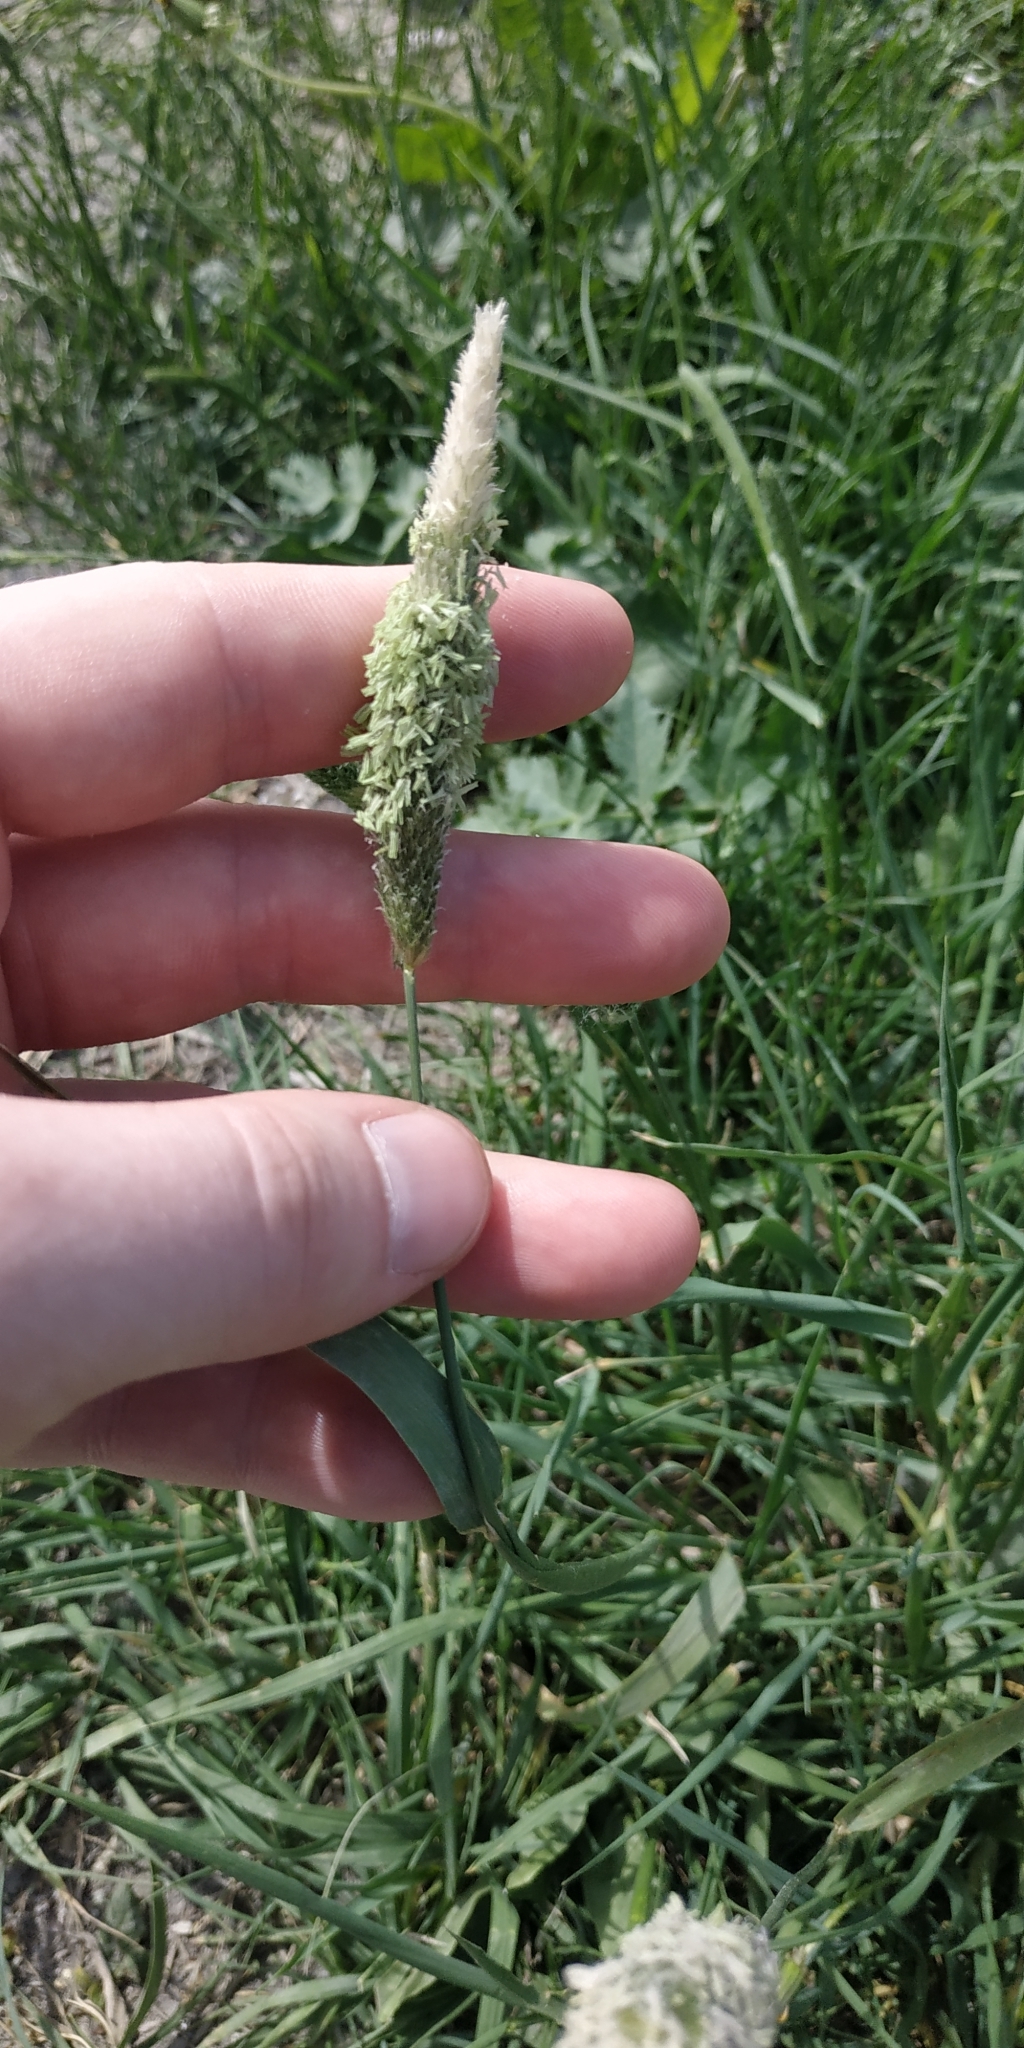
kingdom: Plantae
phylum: Tracheophyta
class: Liliopsida
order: Poales
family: Poaceae
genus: Alopecurus
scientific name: Alopecurus pratensis
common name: Meadow foxtail
